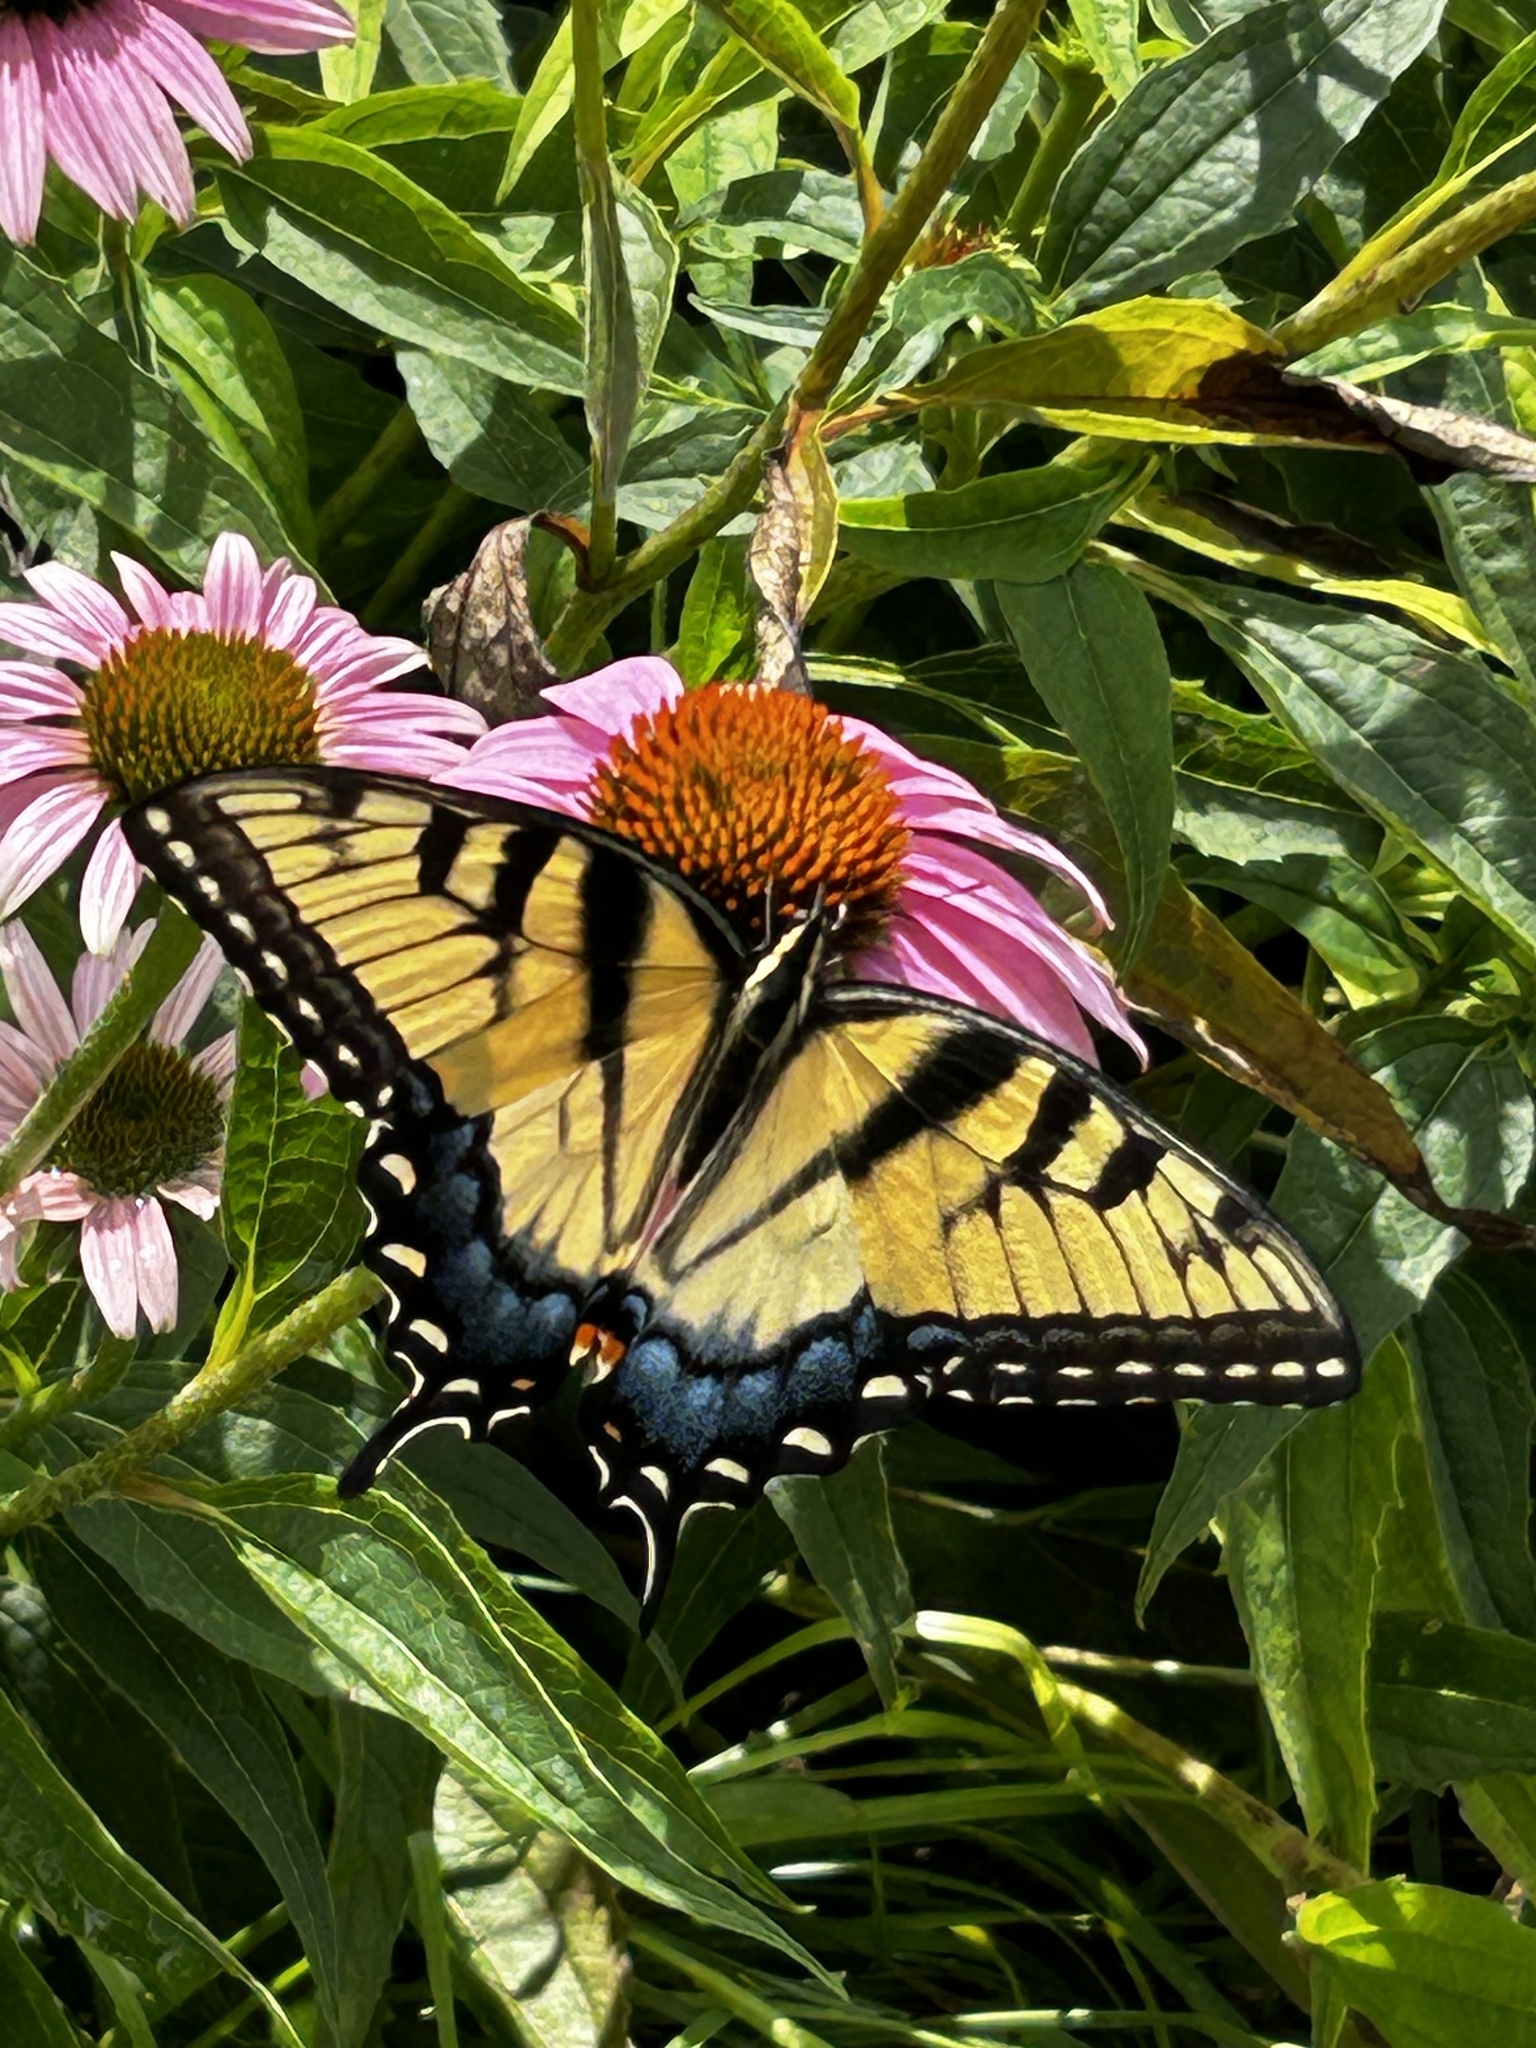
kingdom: Animalia
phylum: Arthropoda
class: Insecta
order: Lepidoptera
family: Papilionidae
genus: Papilio
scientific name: Papilio glaucus
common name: Tiger swallowtail
